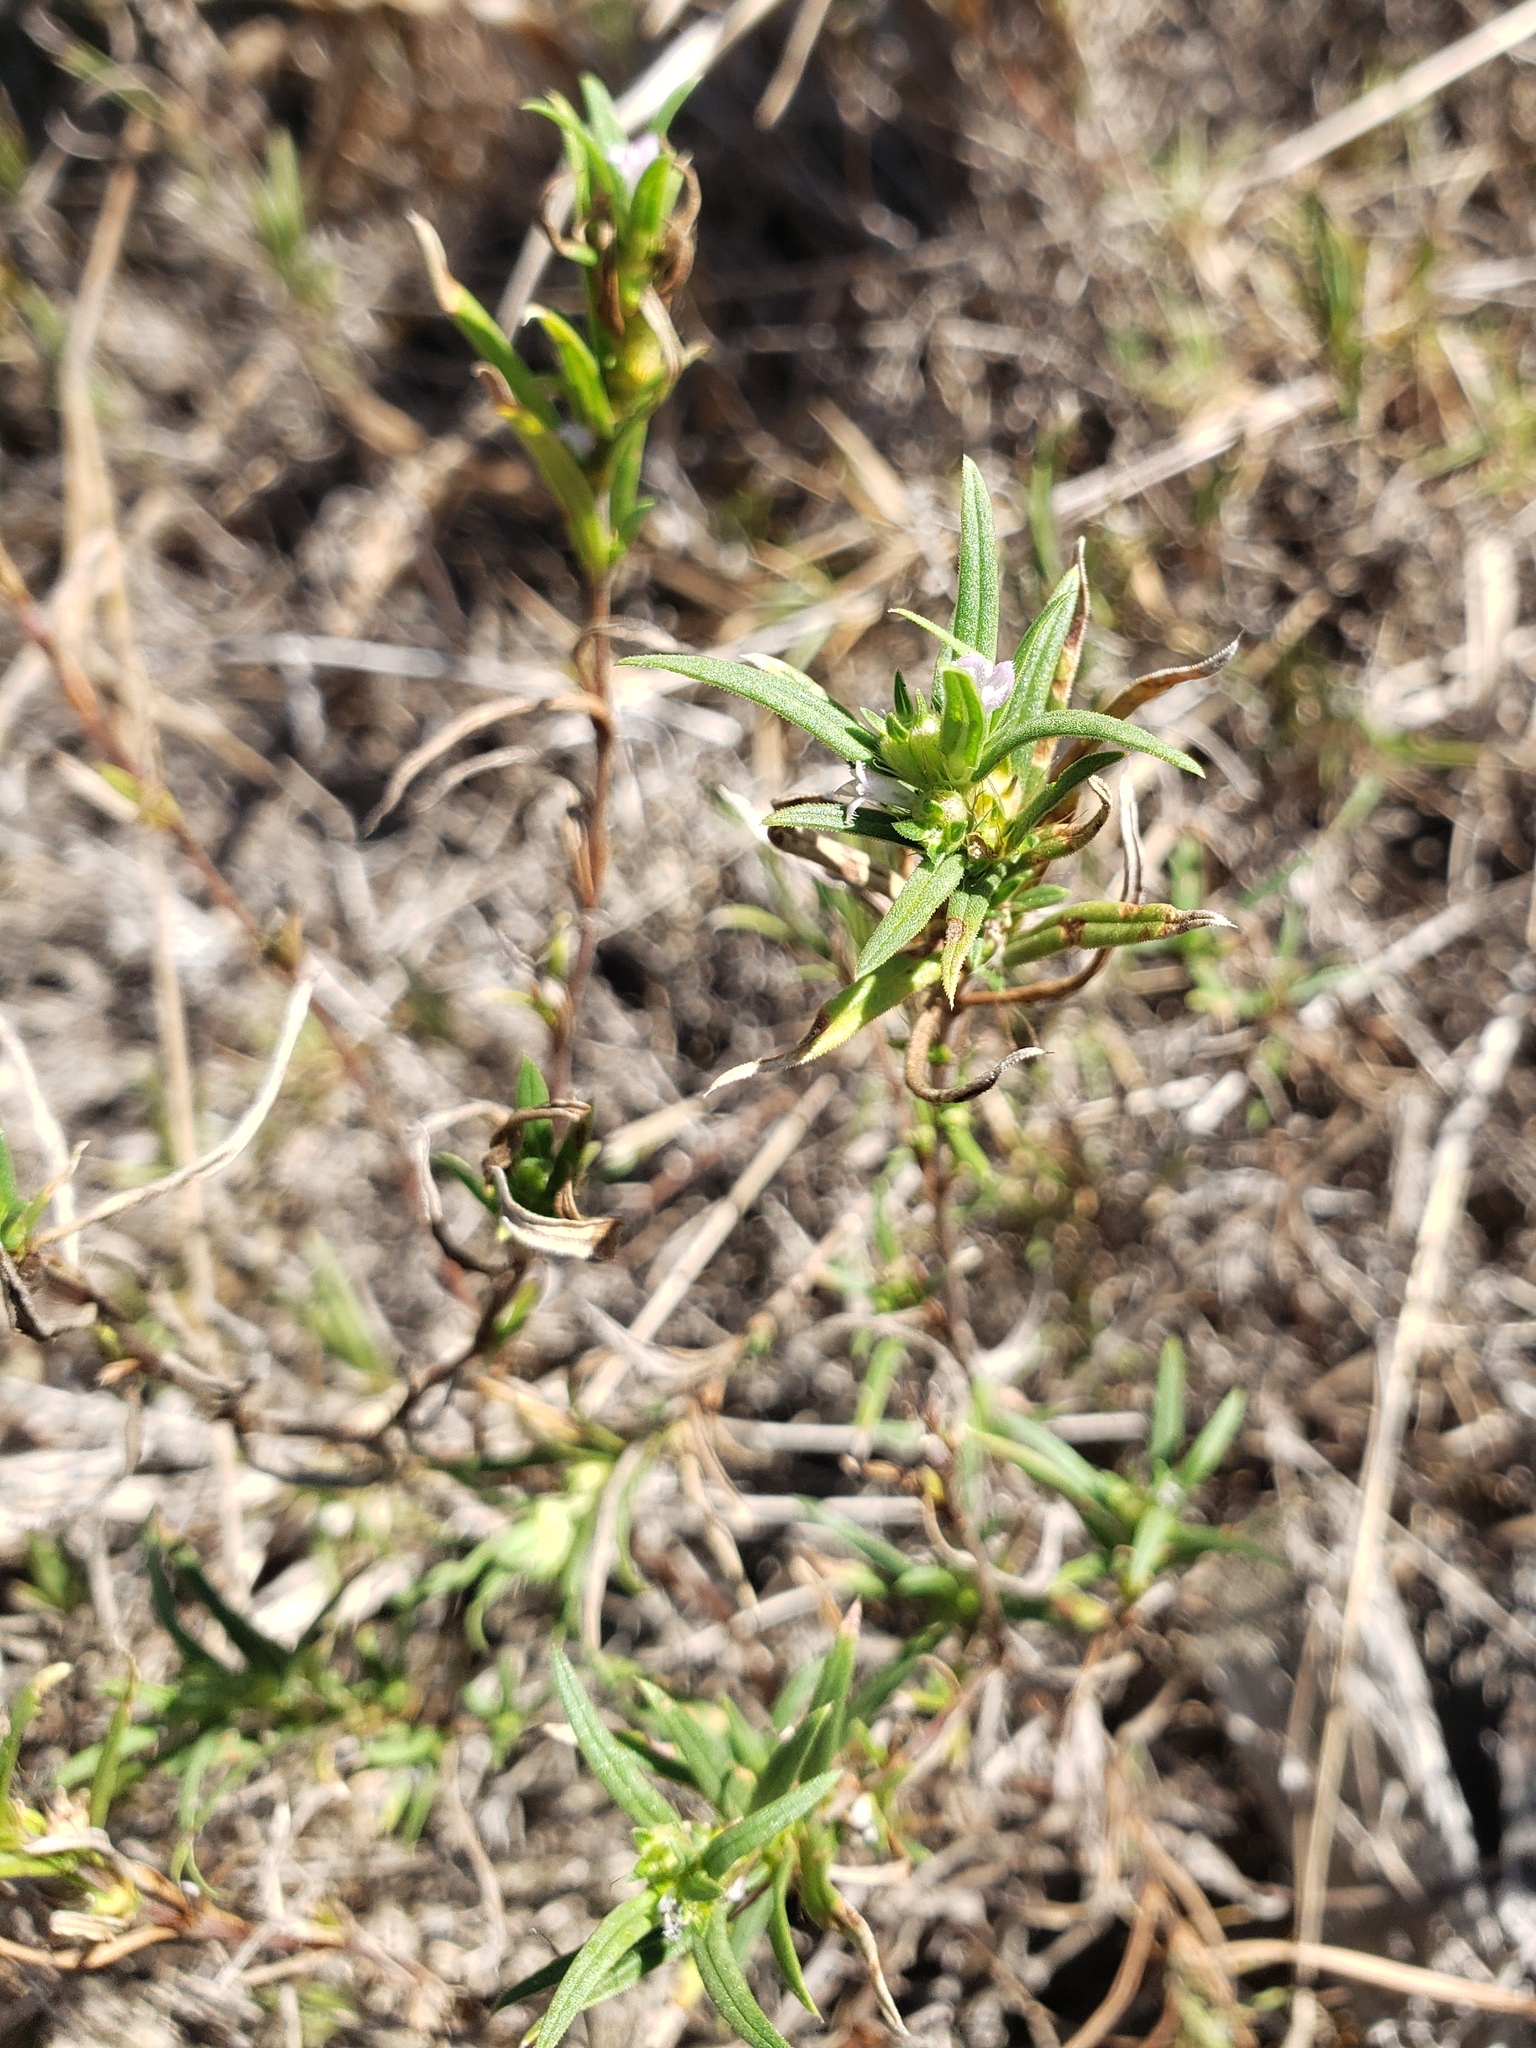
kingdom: Plantae
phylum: Tracheophyta
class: Magnoliopsida
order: Gentianales
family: Rubiaceae
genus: Hexasepalum
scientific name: Hexasepalum teres
